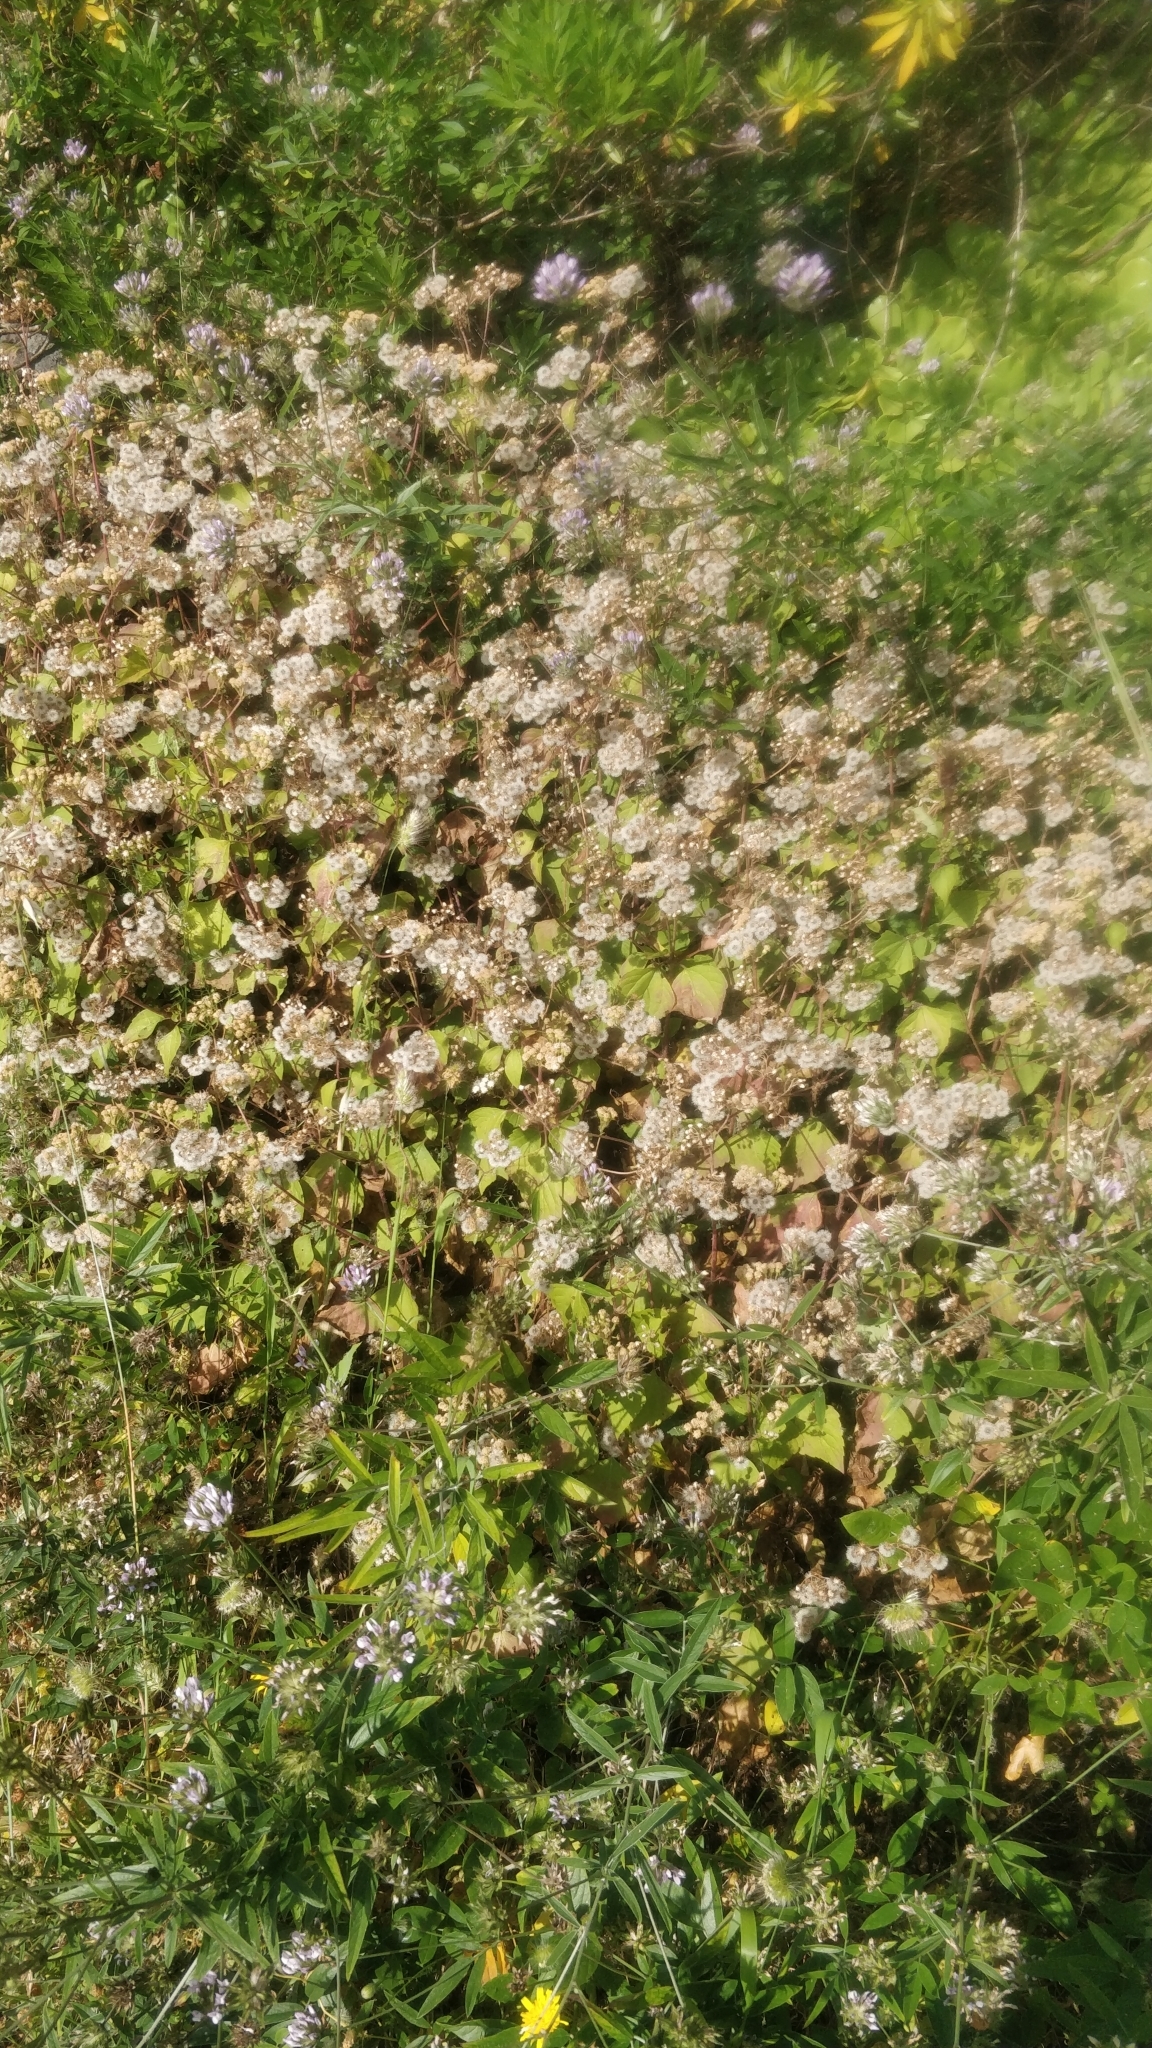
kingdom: Plantae
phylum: Tracheophyta
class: Magnoliopsida
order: Asterales
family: Asteraceae
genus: Ageratina
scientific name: Ageratina adenophora
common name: Sticky snakeroot
